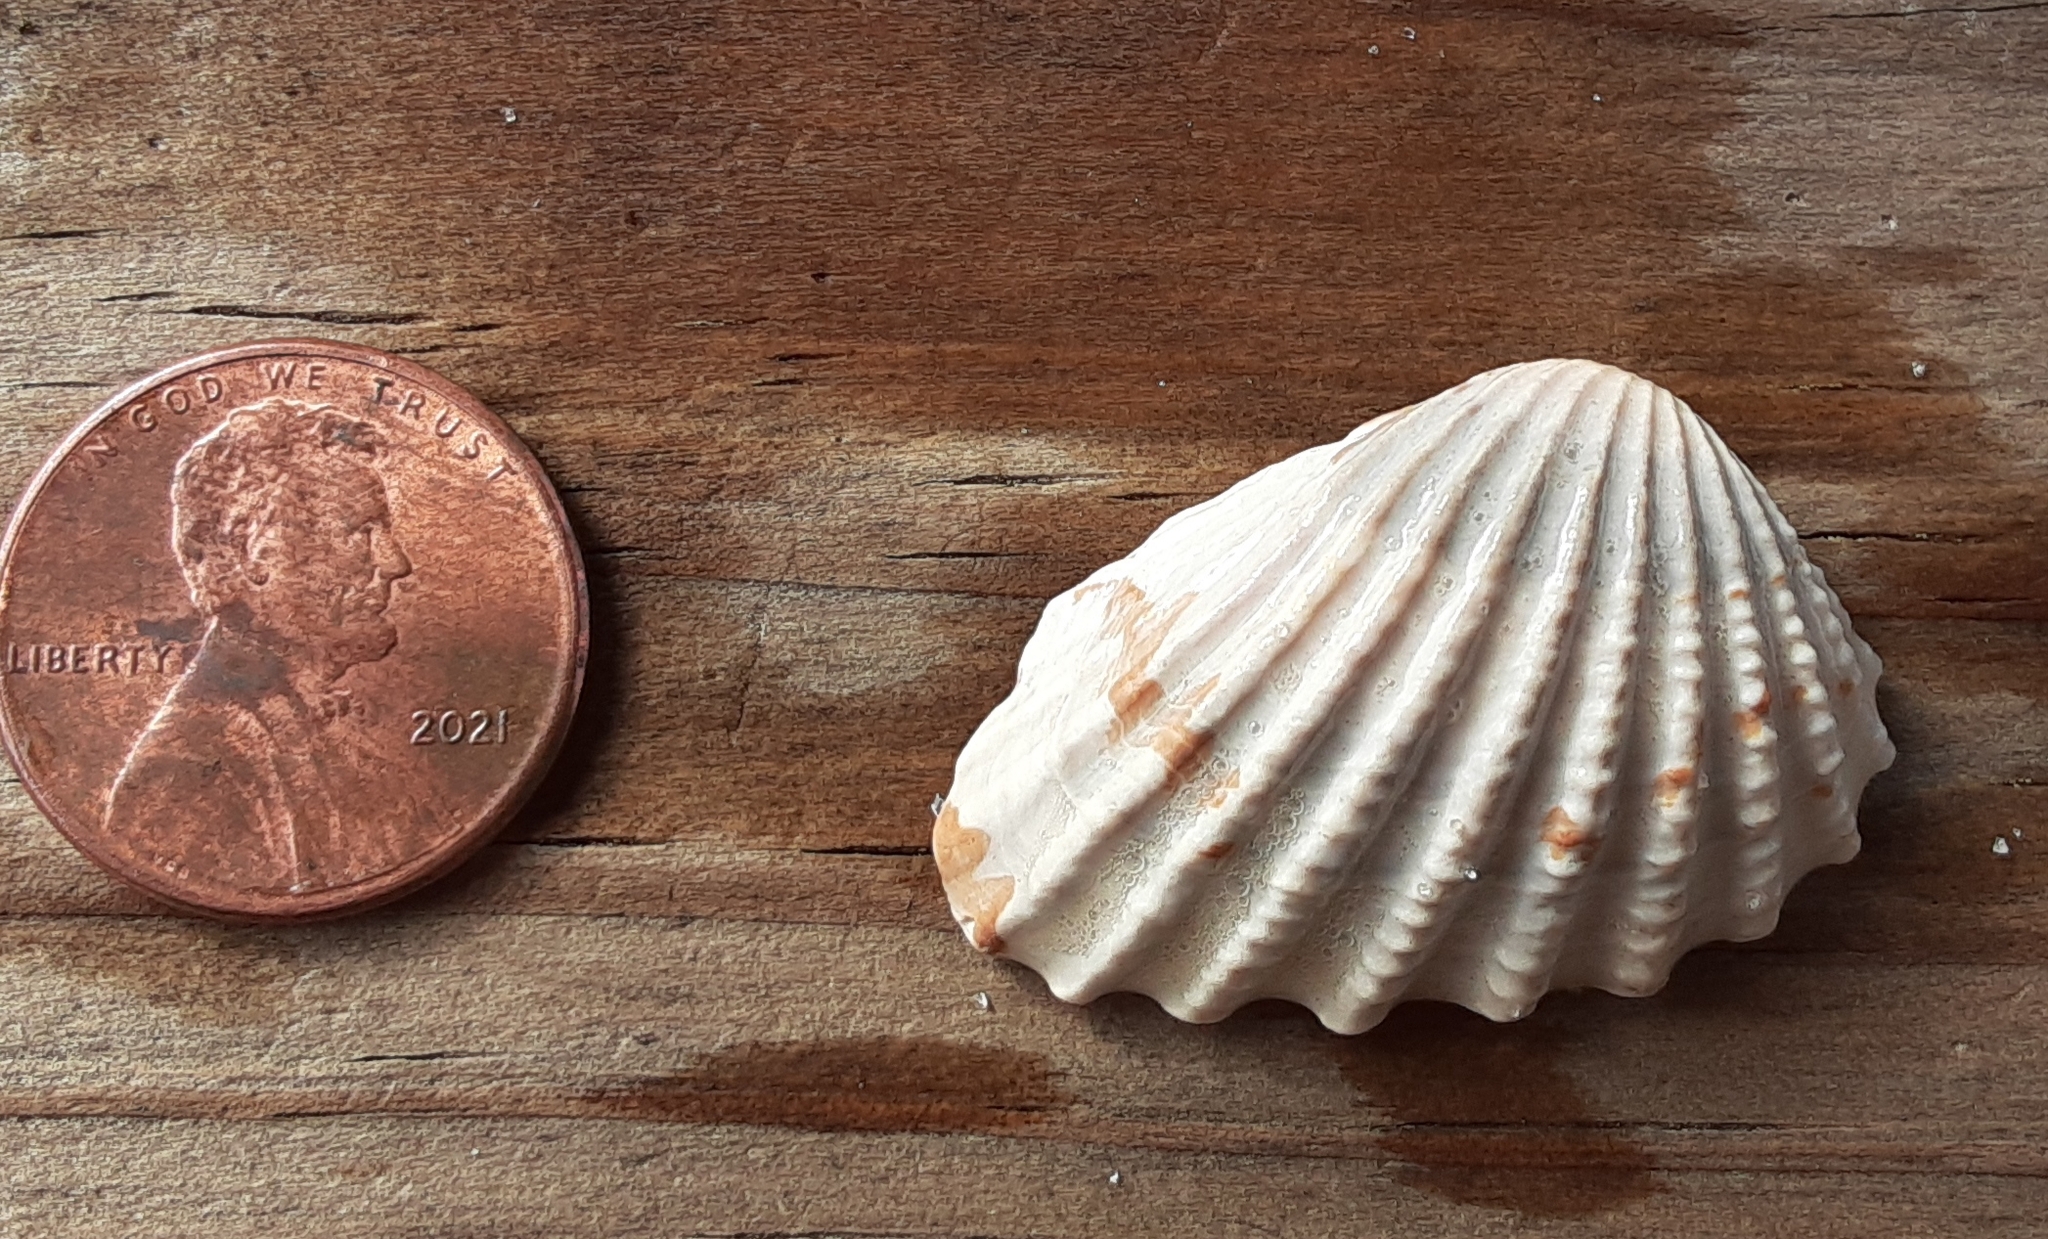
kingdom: Animalia
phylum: Mollusca
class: Bivalvia
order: Carditida
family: Carditidae
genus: Cardites
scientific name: Cardites floridanus
